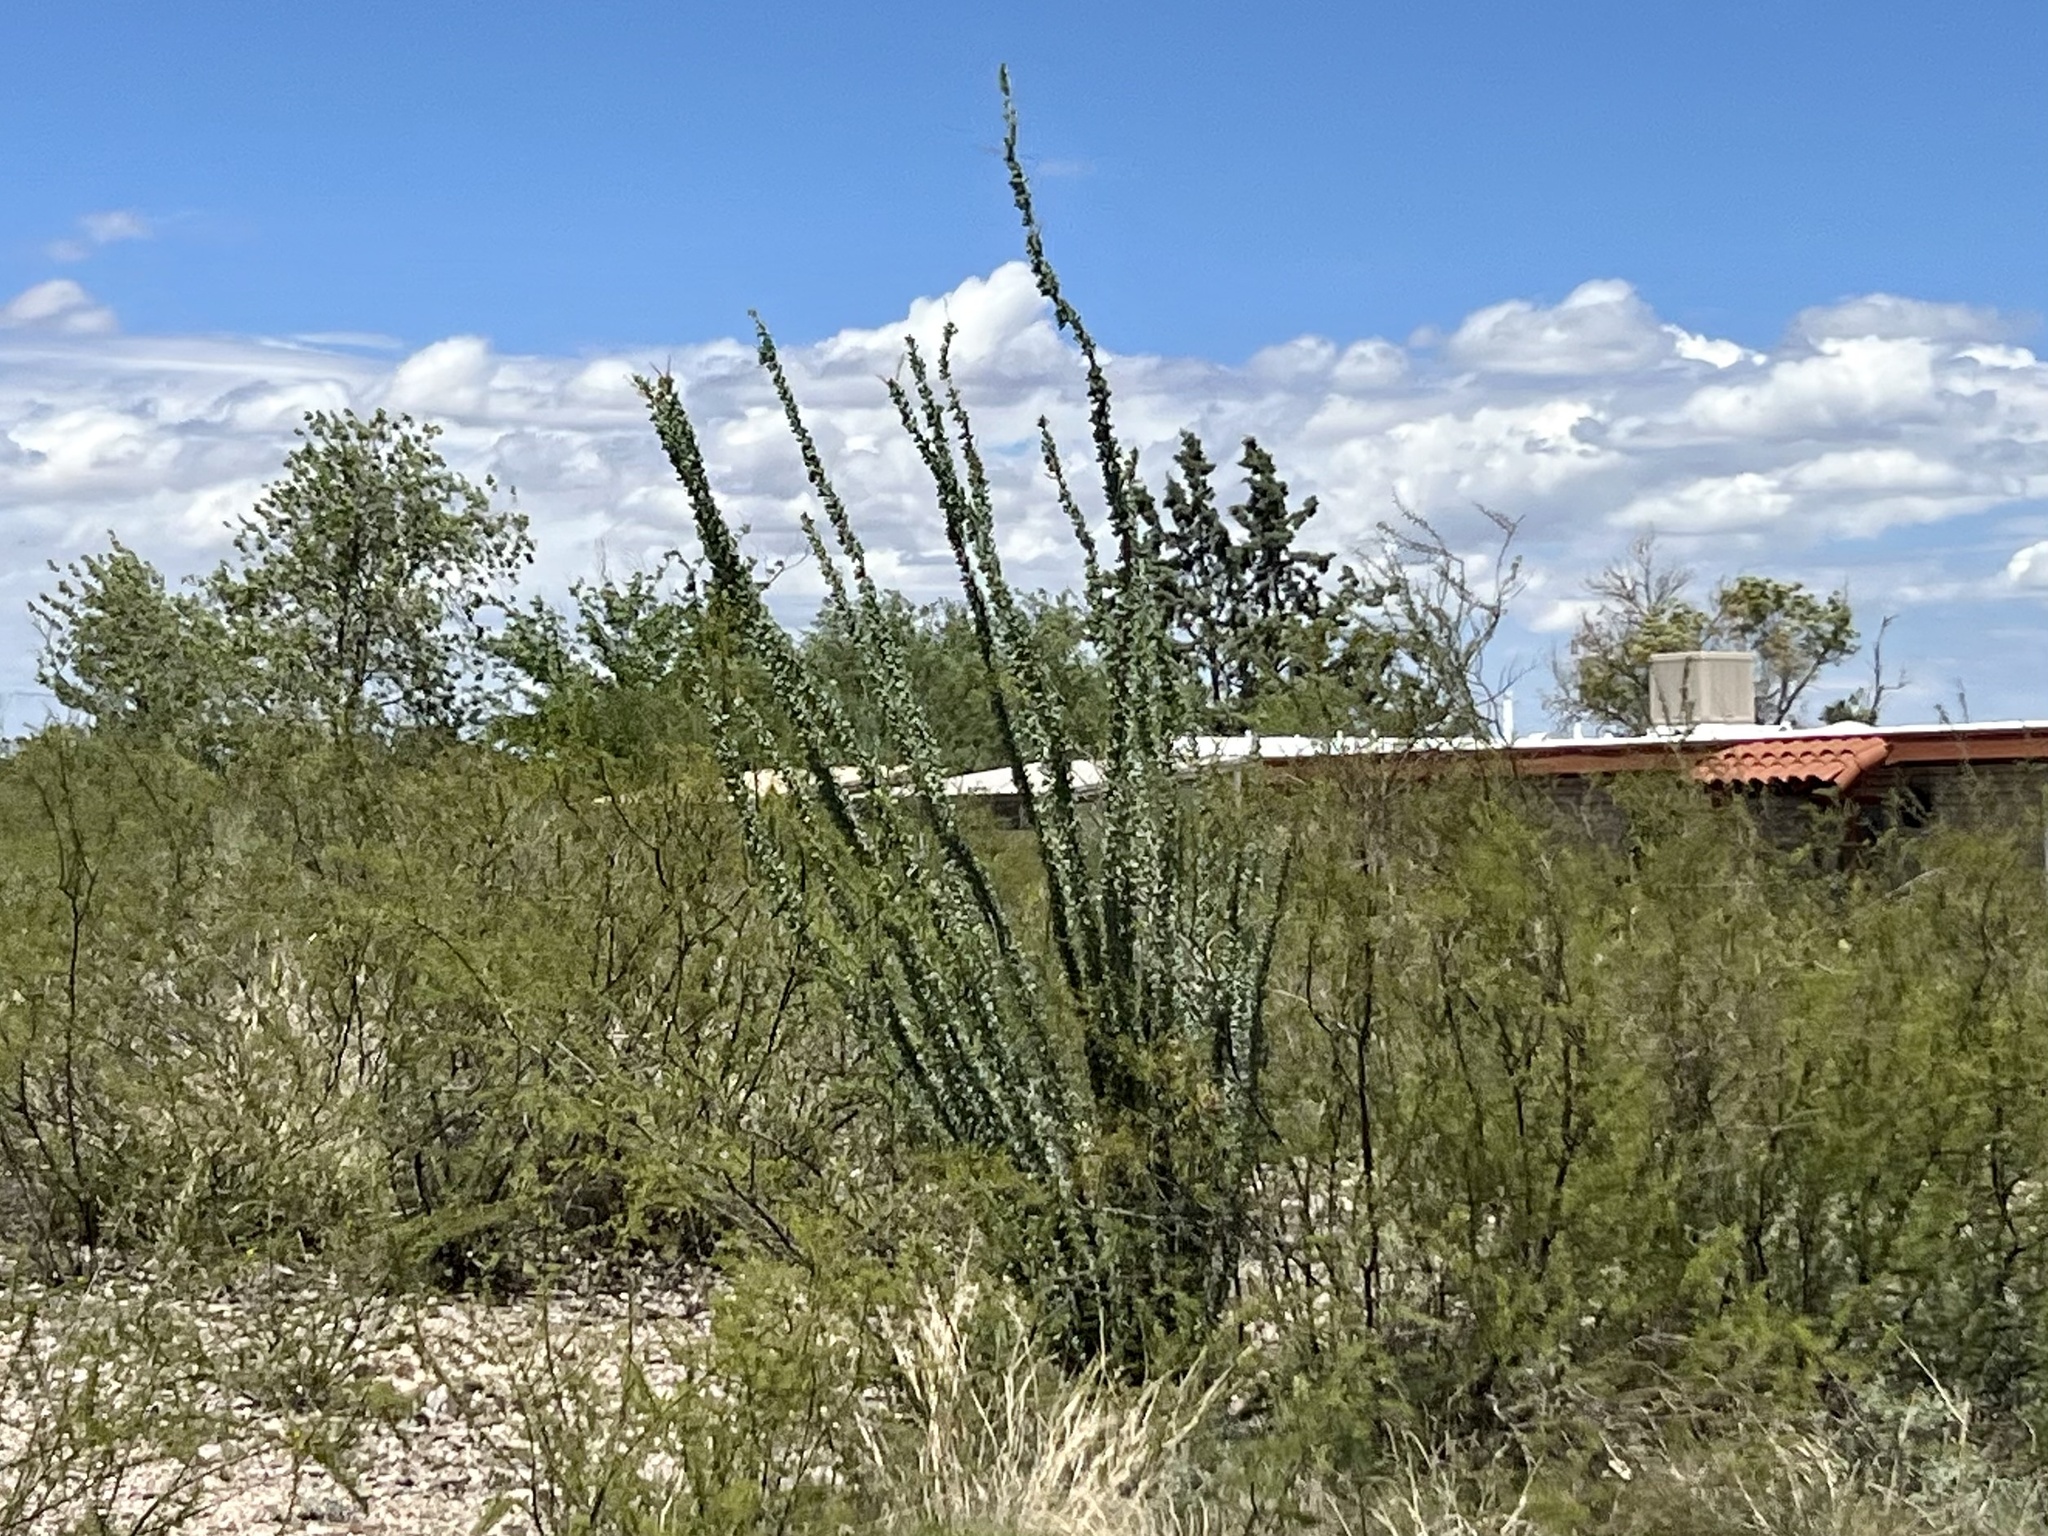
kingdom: Plantae
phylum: Tracheophyta
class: Magnoliopsida
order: Ericales
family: Fouquieriaceae
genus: Fouquieria
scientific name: Fouquieria splendens
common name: Vine-cactus
